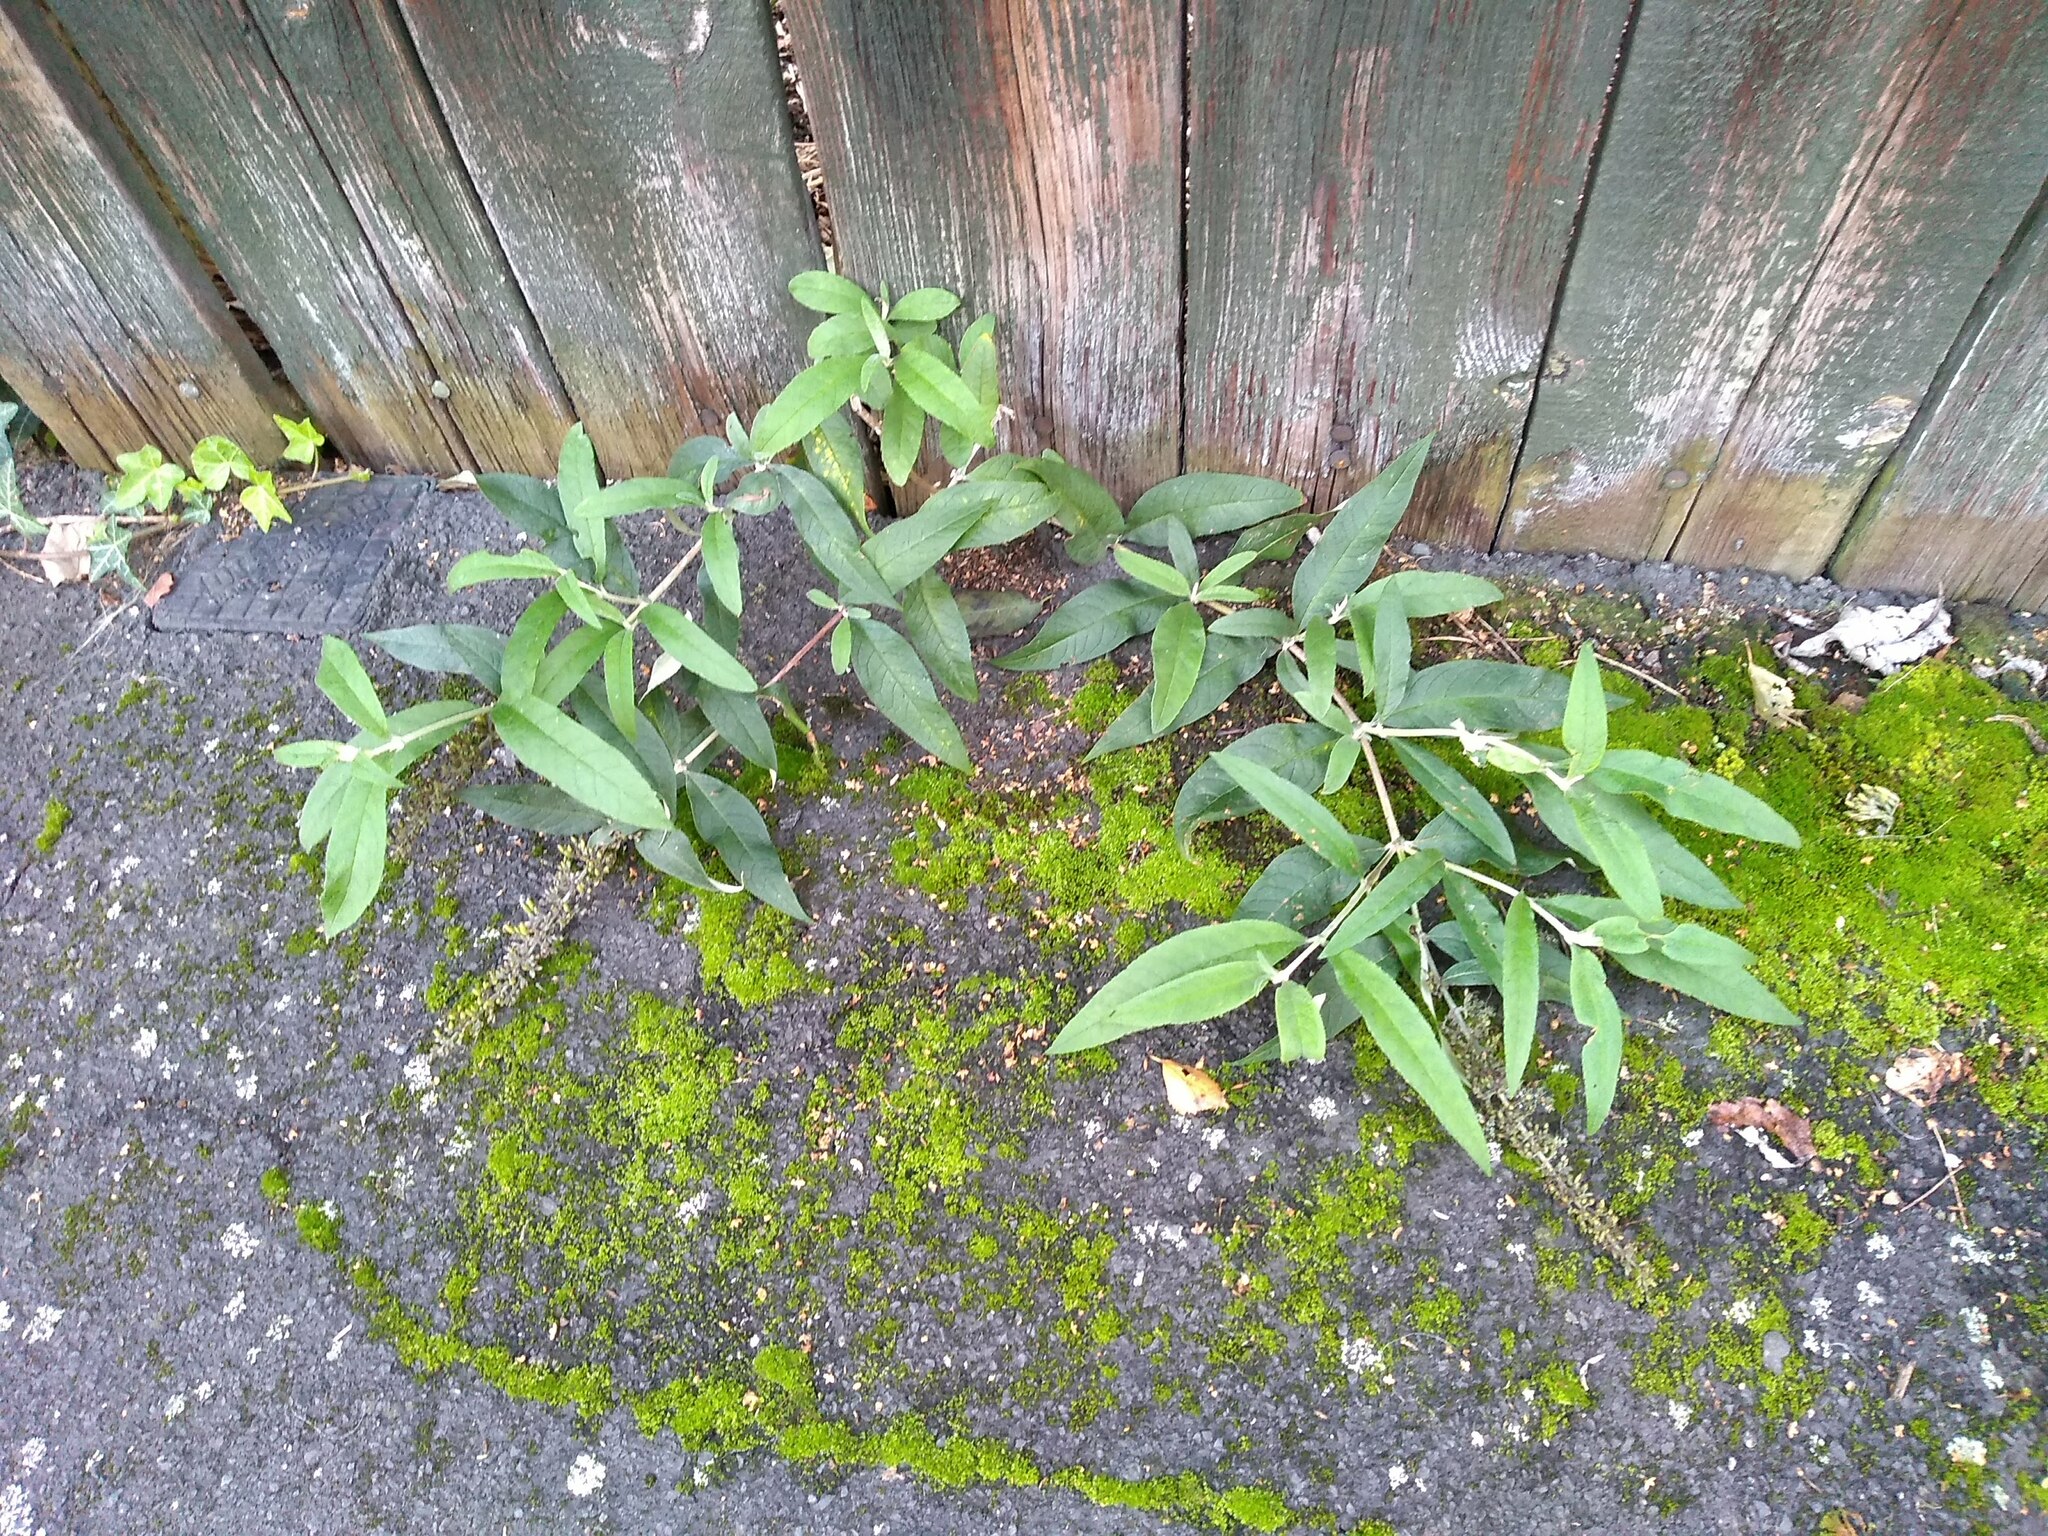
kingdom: Plantae
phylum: Tracheophyta
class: Magnoliopsida
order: Lamiales
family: Scrophulariaceae
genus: Buddleja
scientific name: Buddleja davidii
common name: Butterfly-bush
